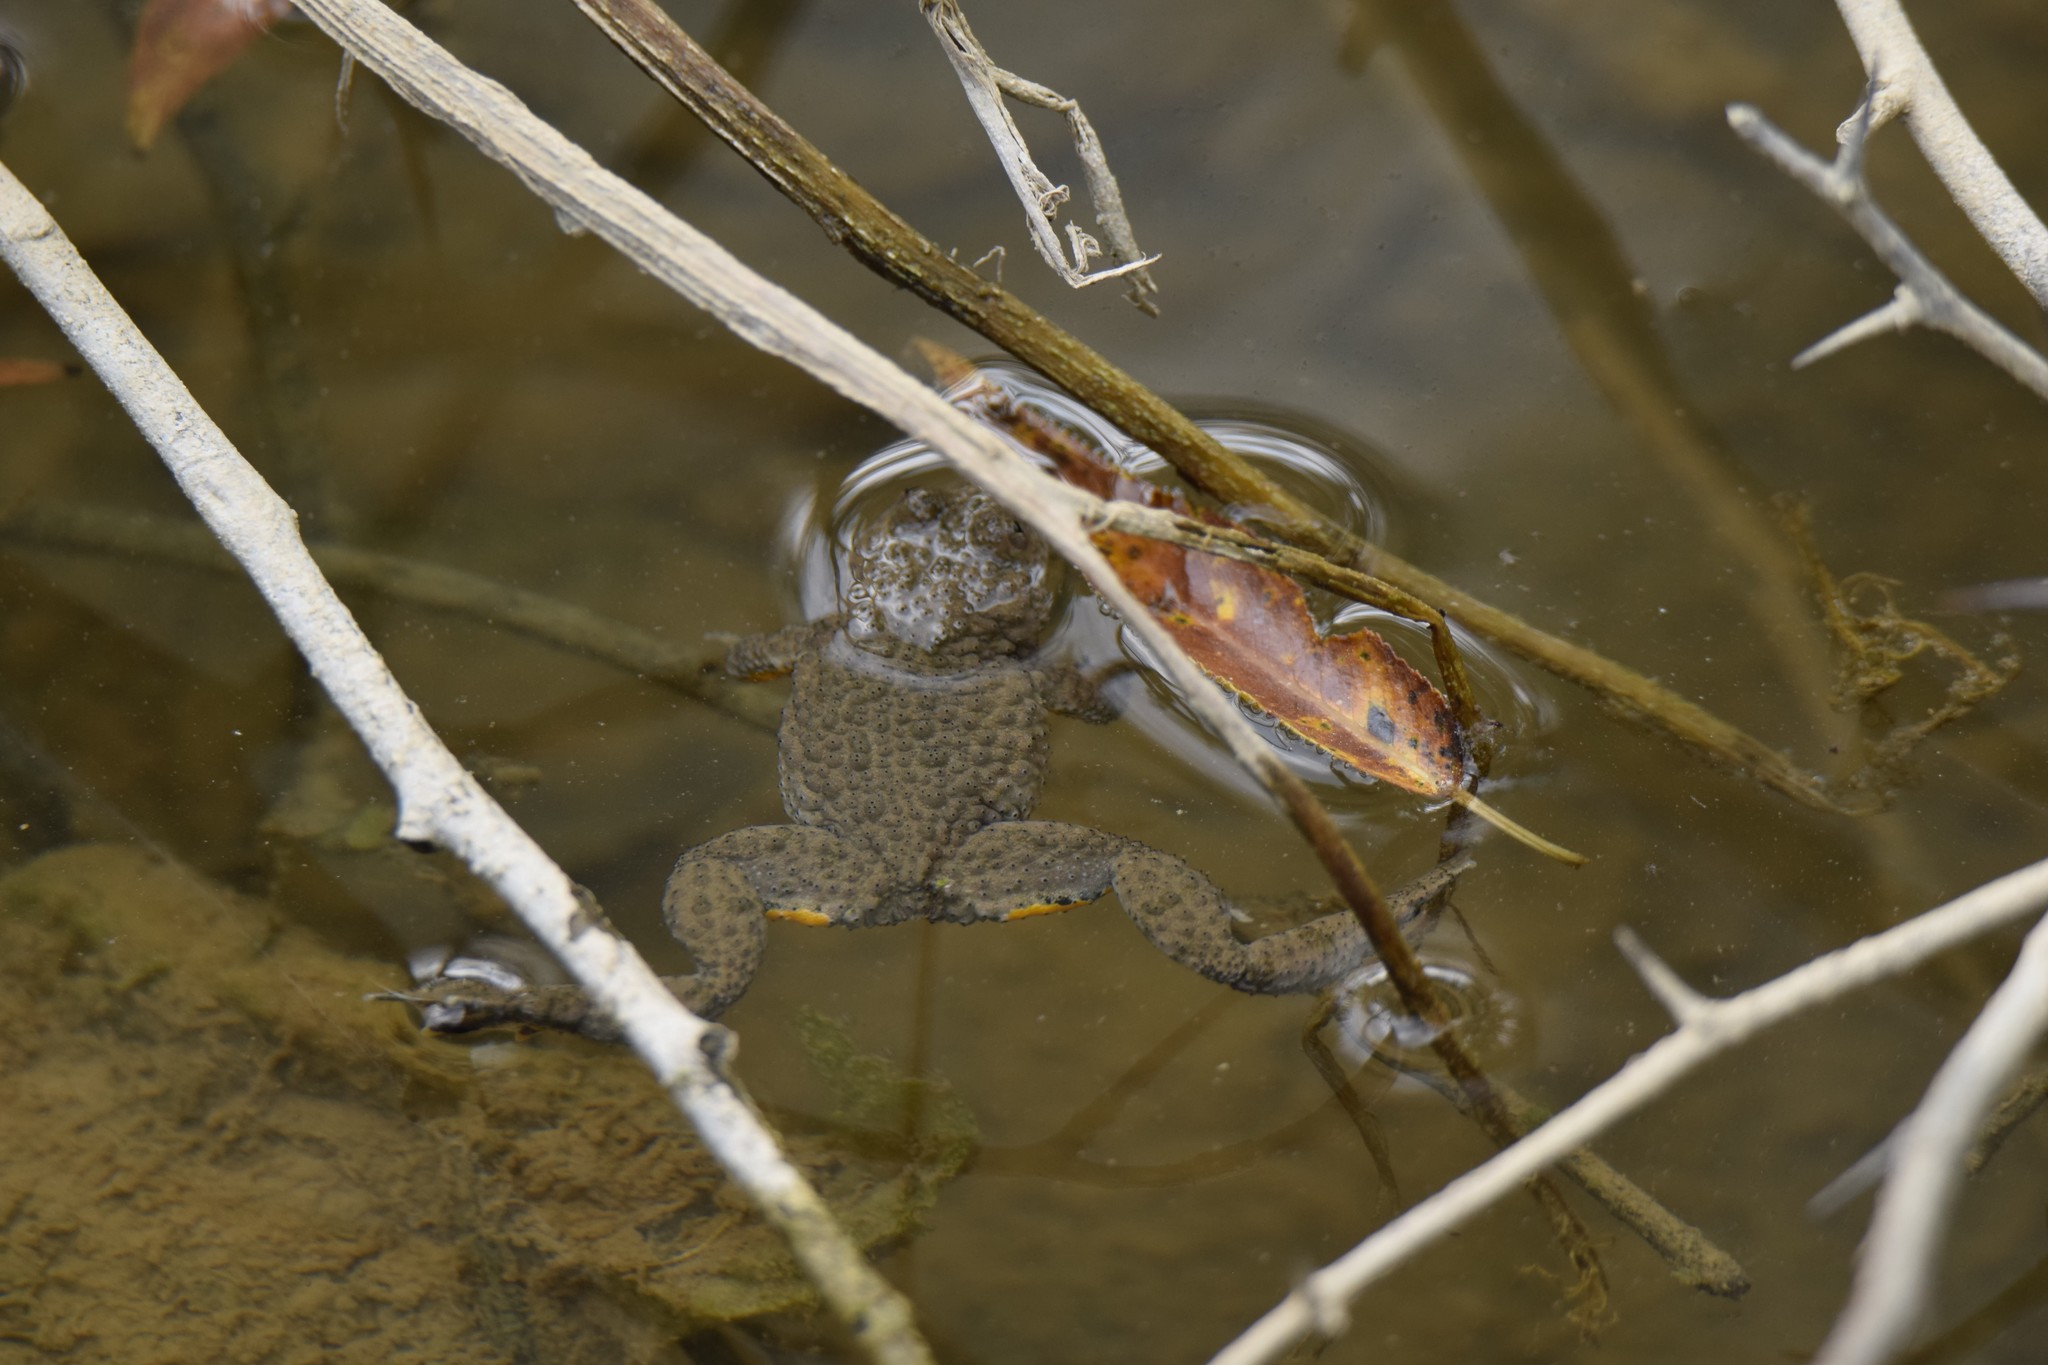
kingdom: Animalia
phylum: Chordata
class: Amphibia
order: Anura
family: Bombinatoridae
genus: Bombina
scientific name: Bombina variegata
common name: Yellow-bellied toad
